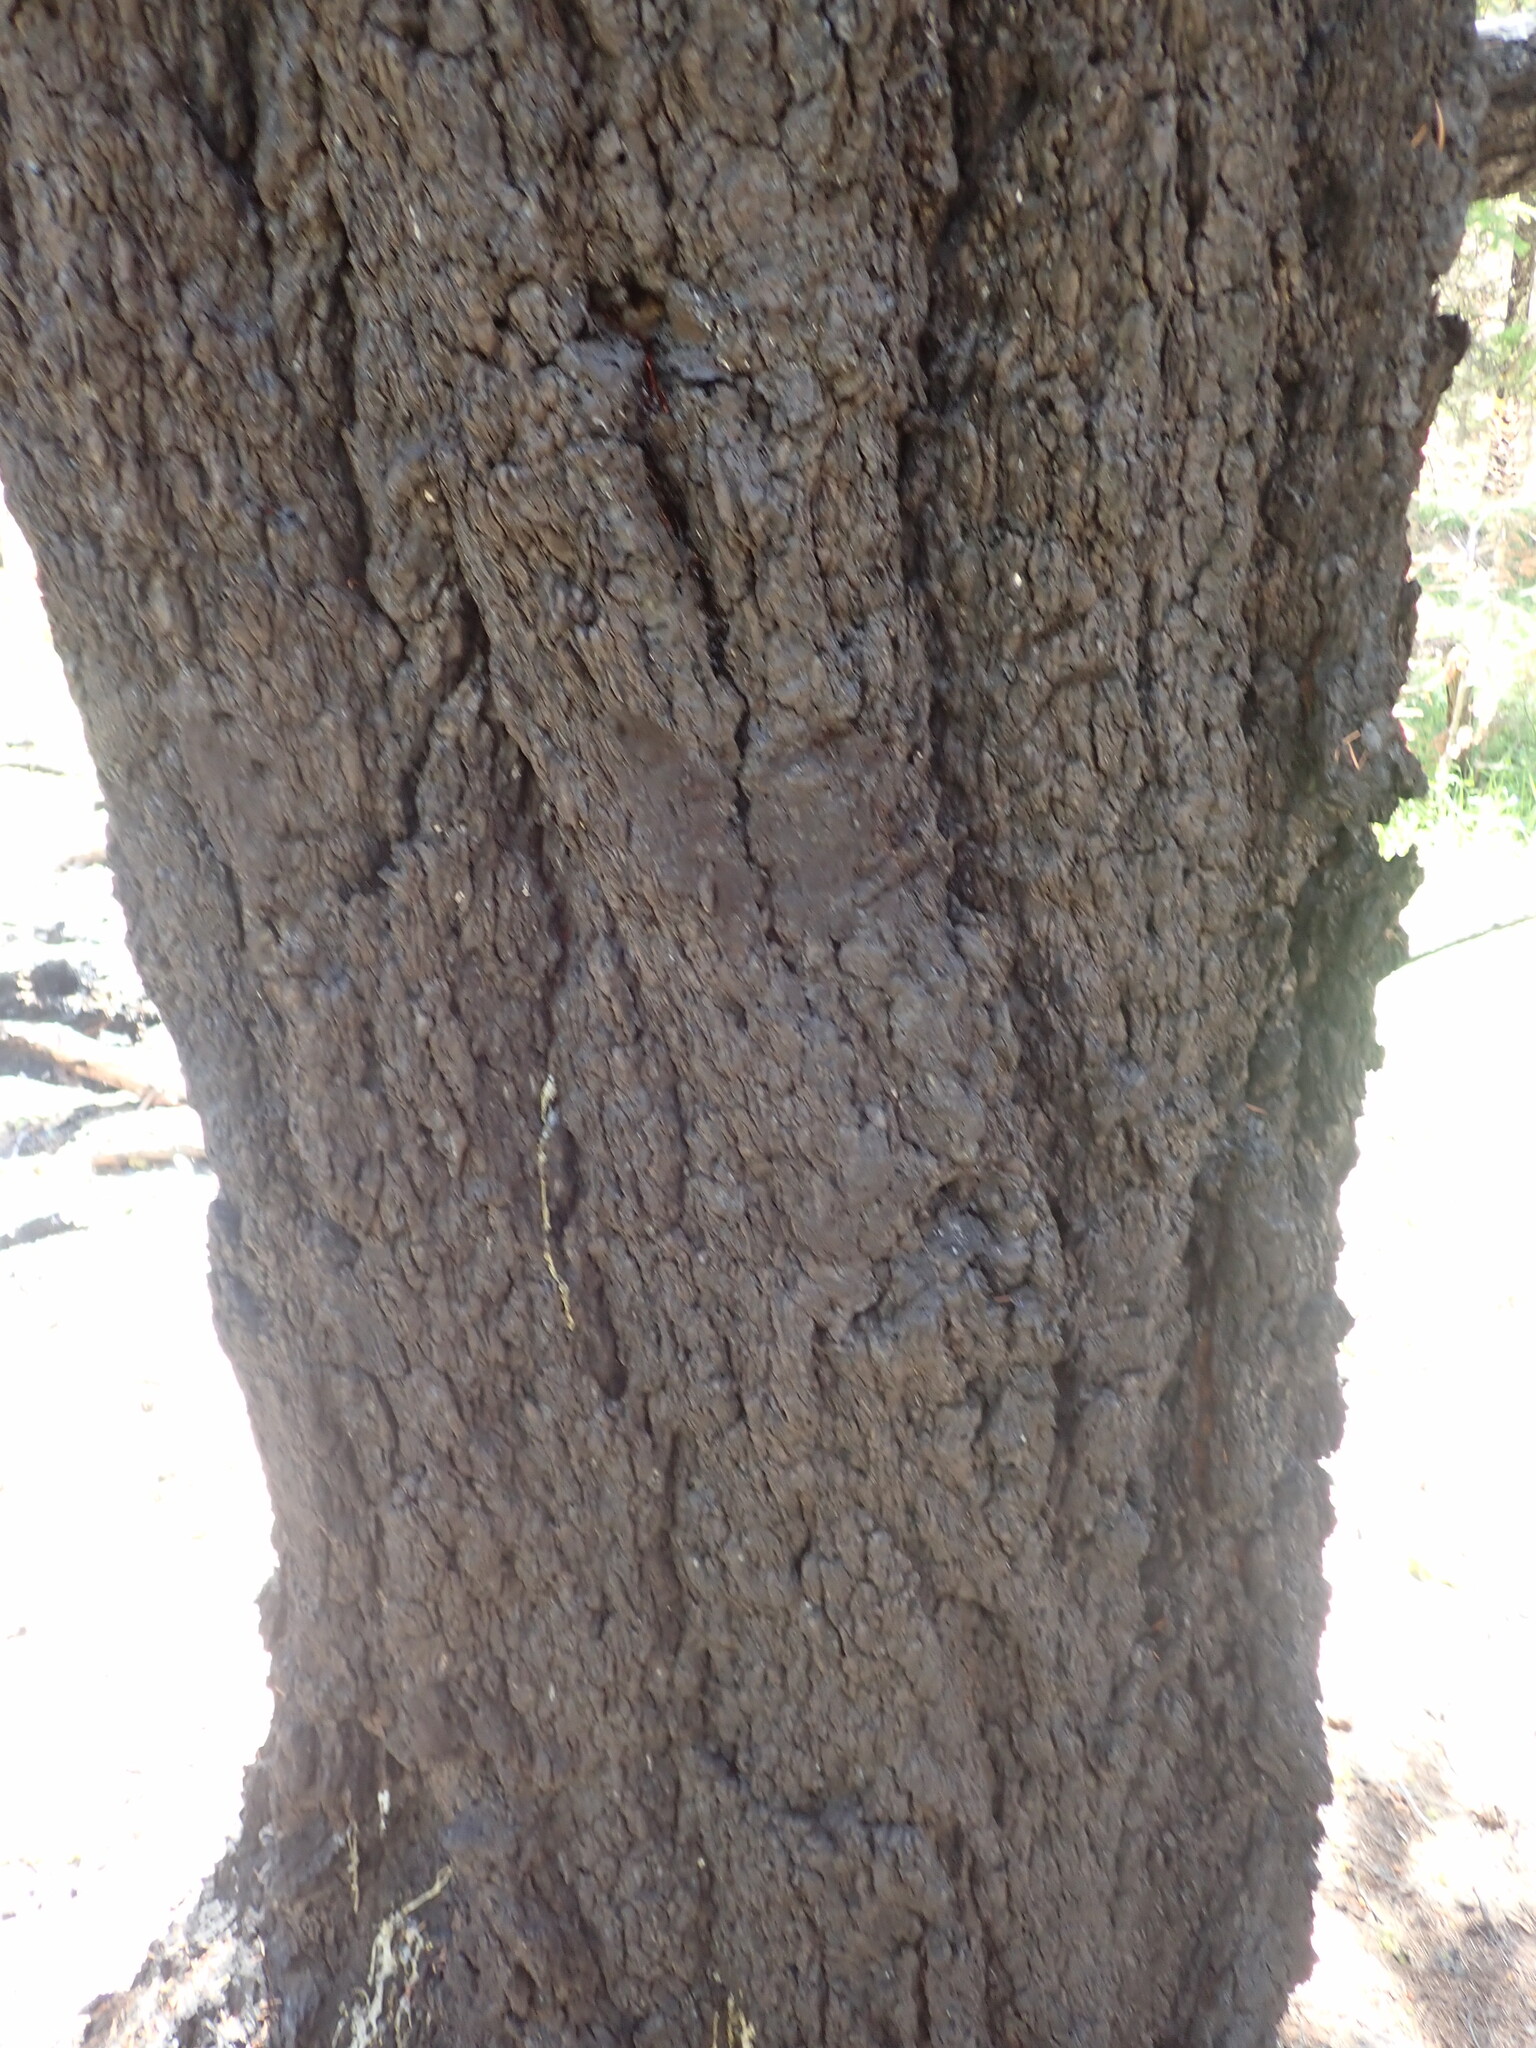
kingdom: Plantae
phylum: Tracheophyta
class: Pinopsida
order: Pinales
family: Pinaceae
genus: Pseudotsuga
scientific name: Pseudotsuga menziesii
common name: Douglas fir
